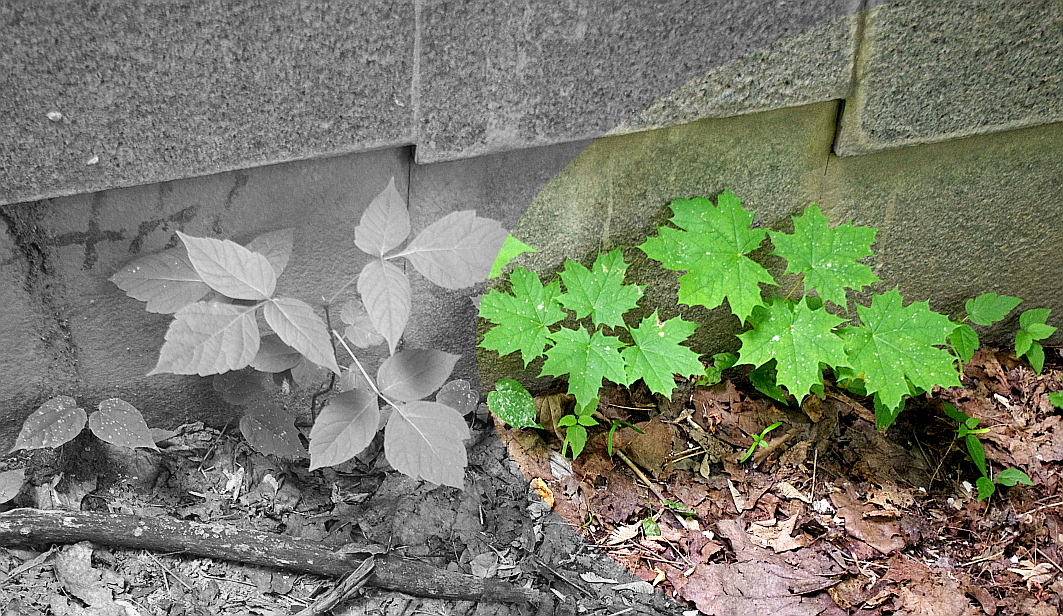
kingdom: Plantae
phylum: Tracheophyta
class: Magnoliopsida
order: Sapindales
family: Sapindaceae
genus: Acer
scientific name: Acer platanoides
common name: Norway maple
